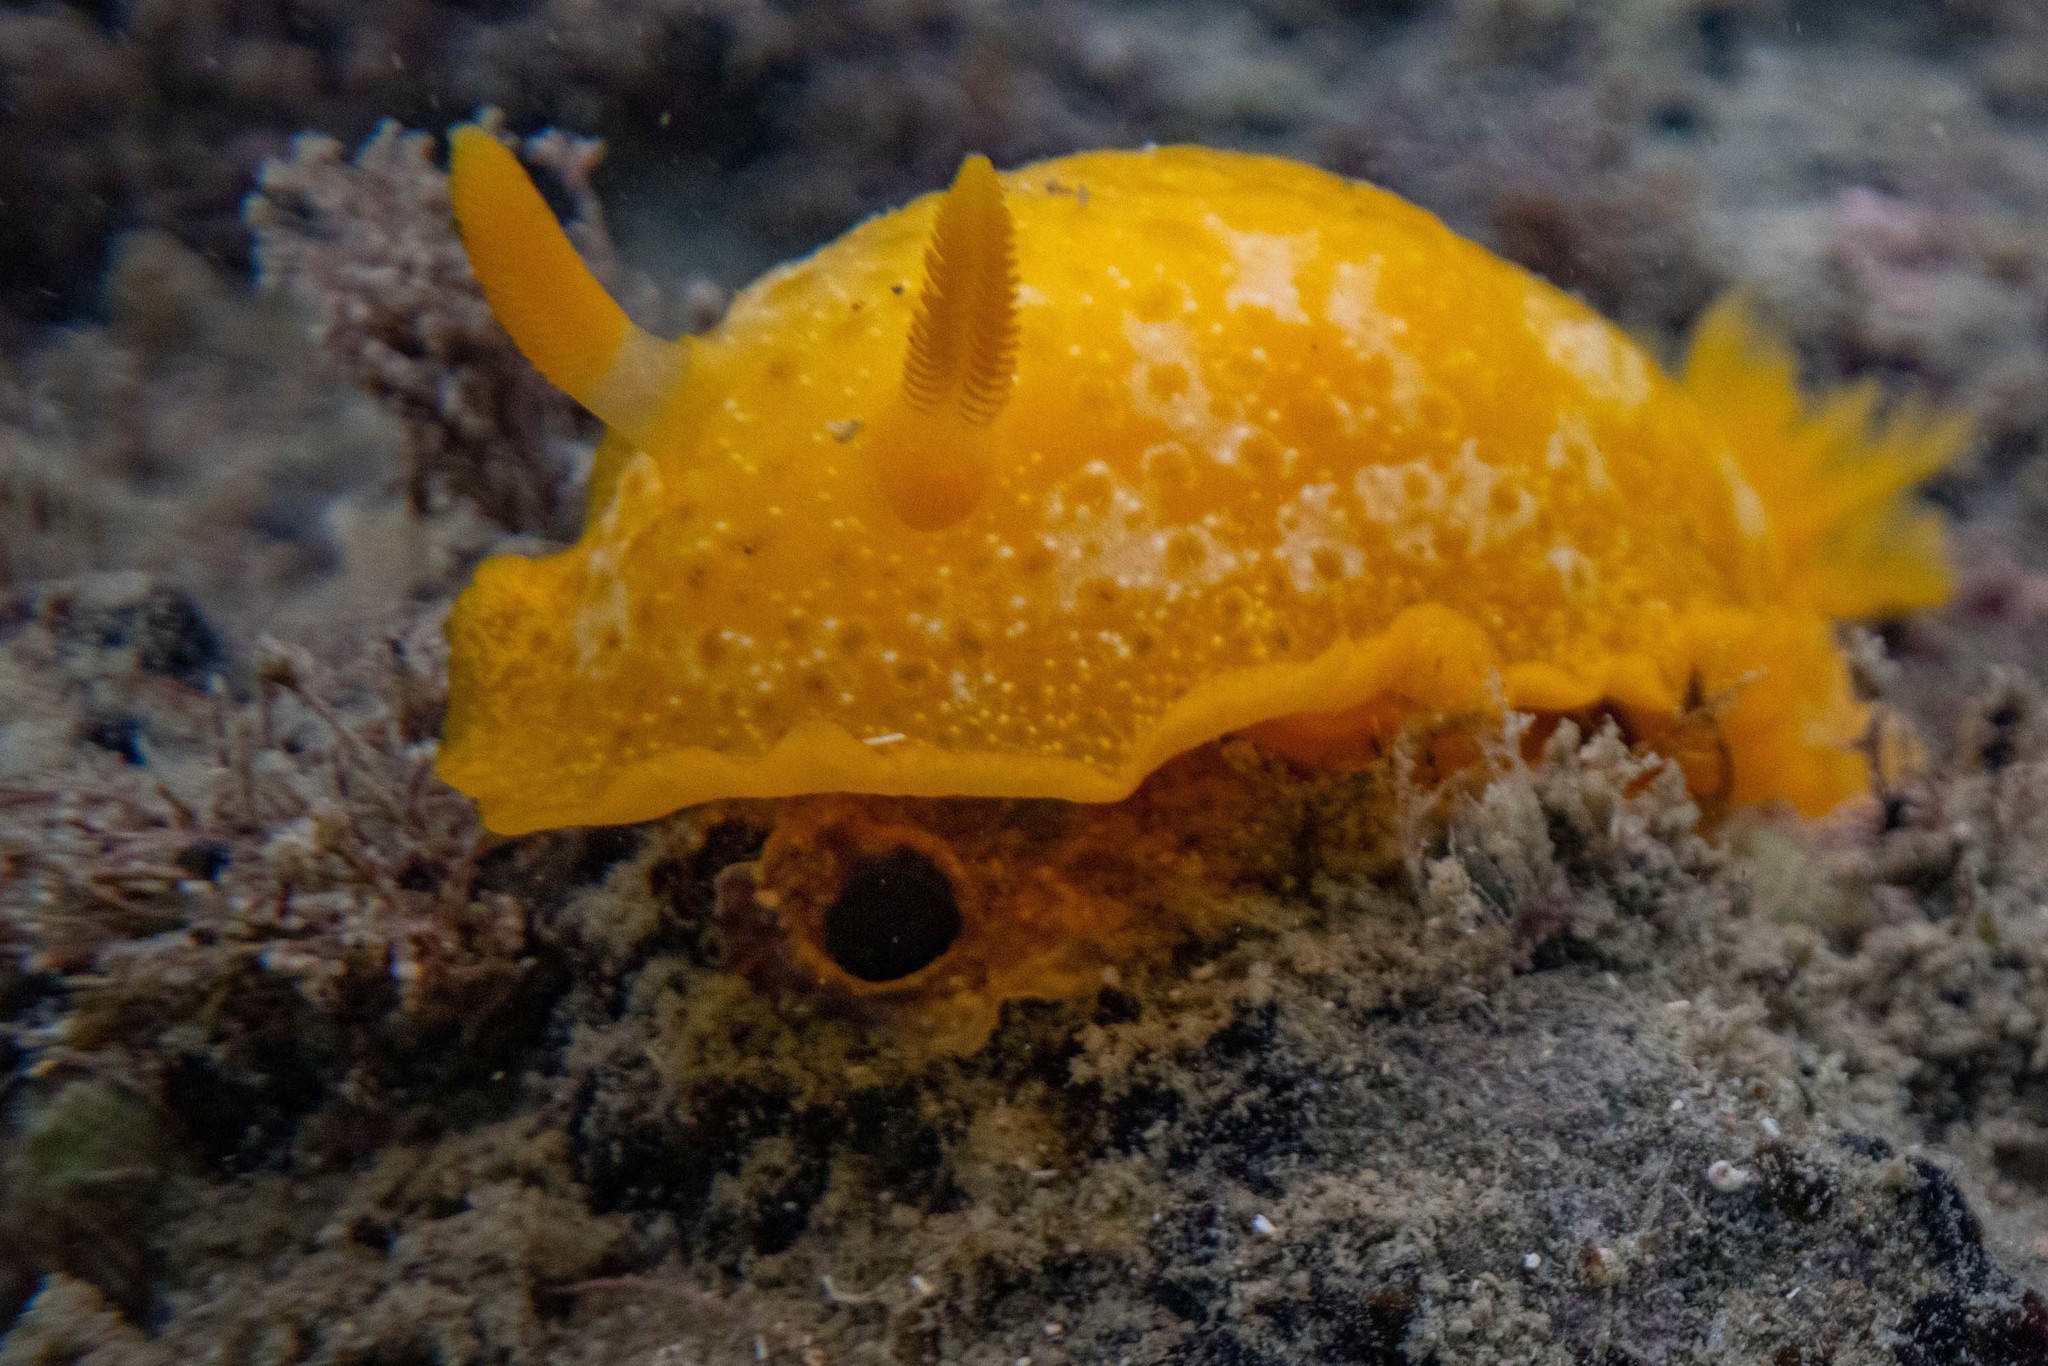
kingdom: Animalia
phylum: Mollusca
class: Gastropoda
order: Nudibranchia
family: Dendrodorididae
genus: Dendrodoris
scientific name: Dendrodoris citrina
